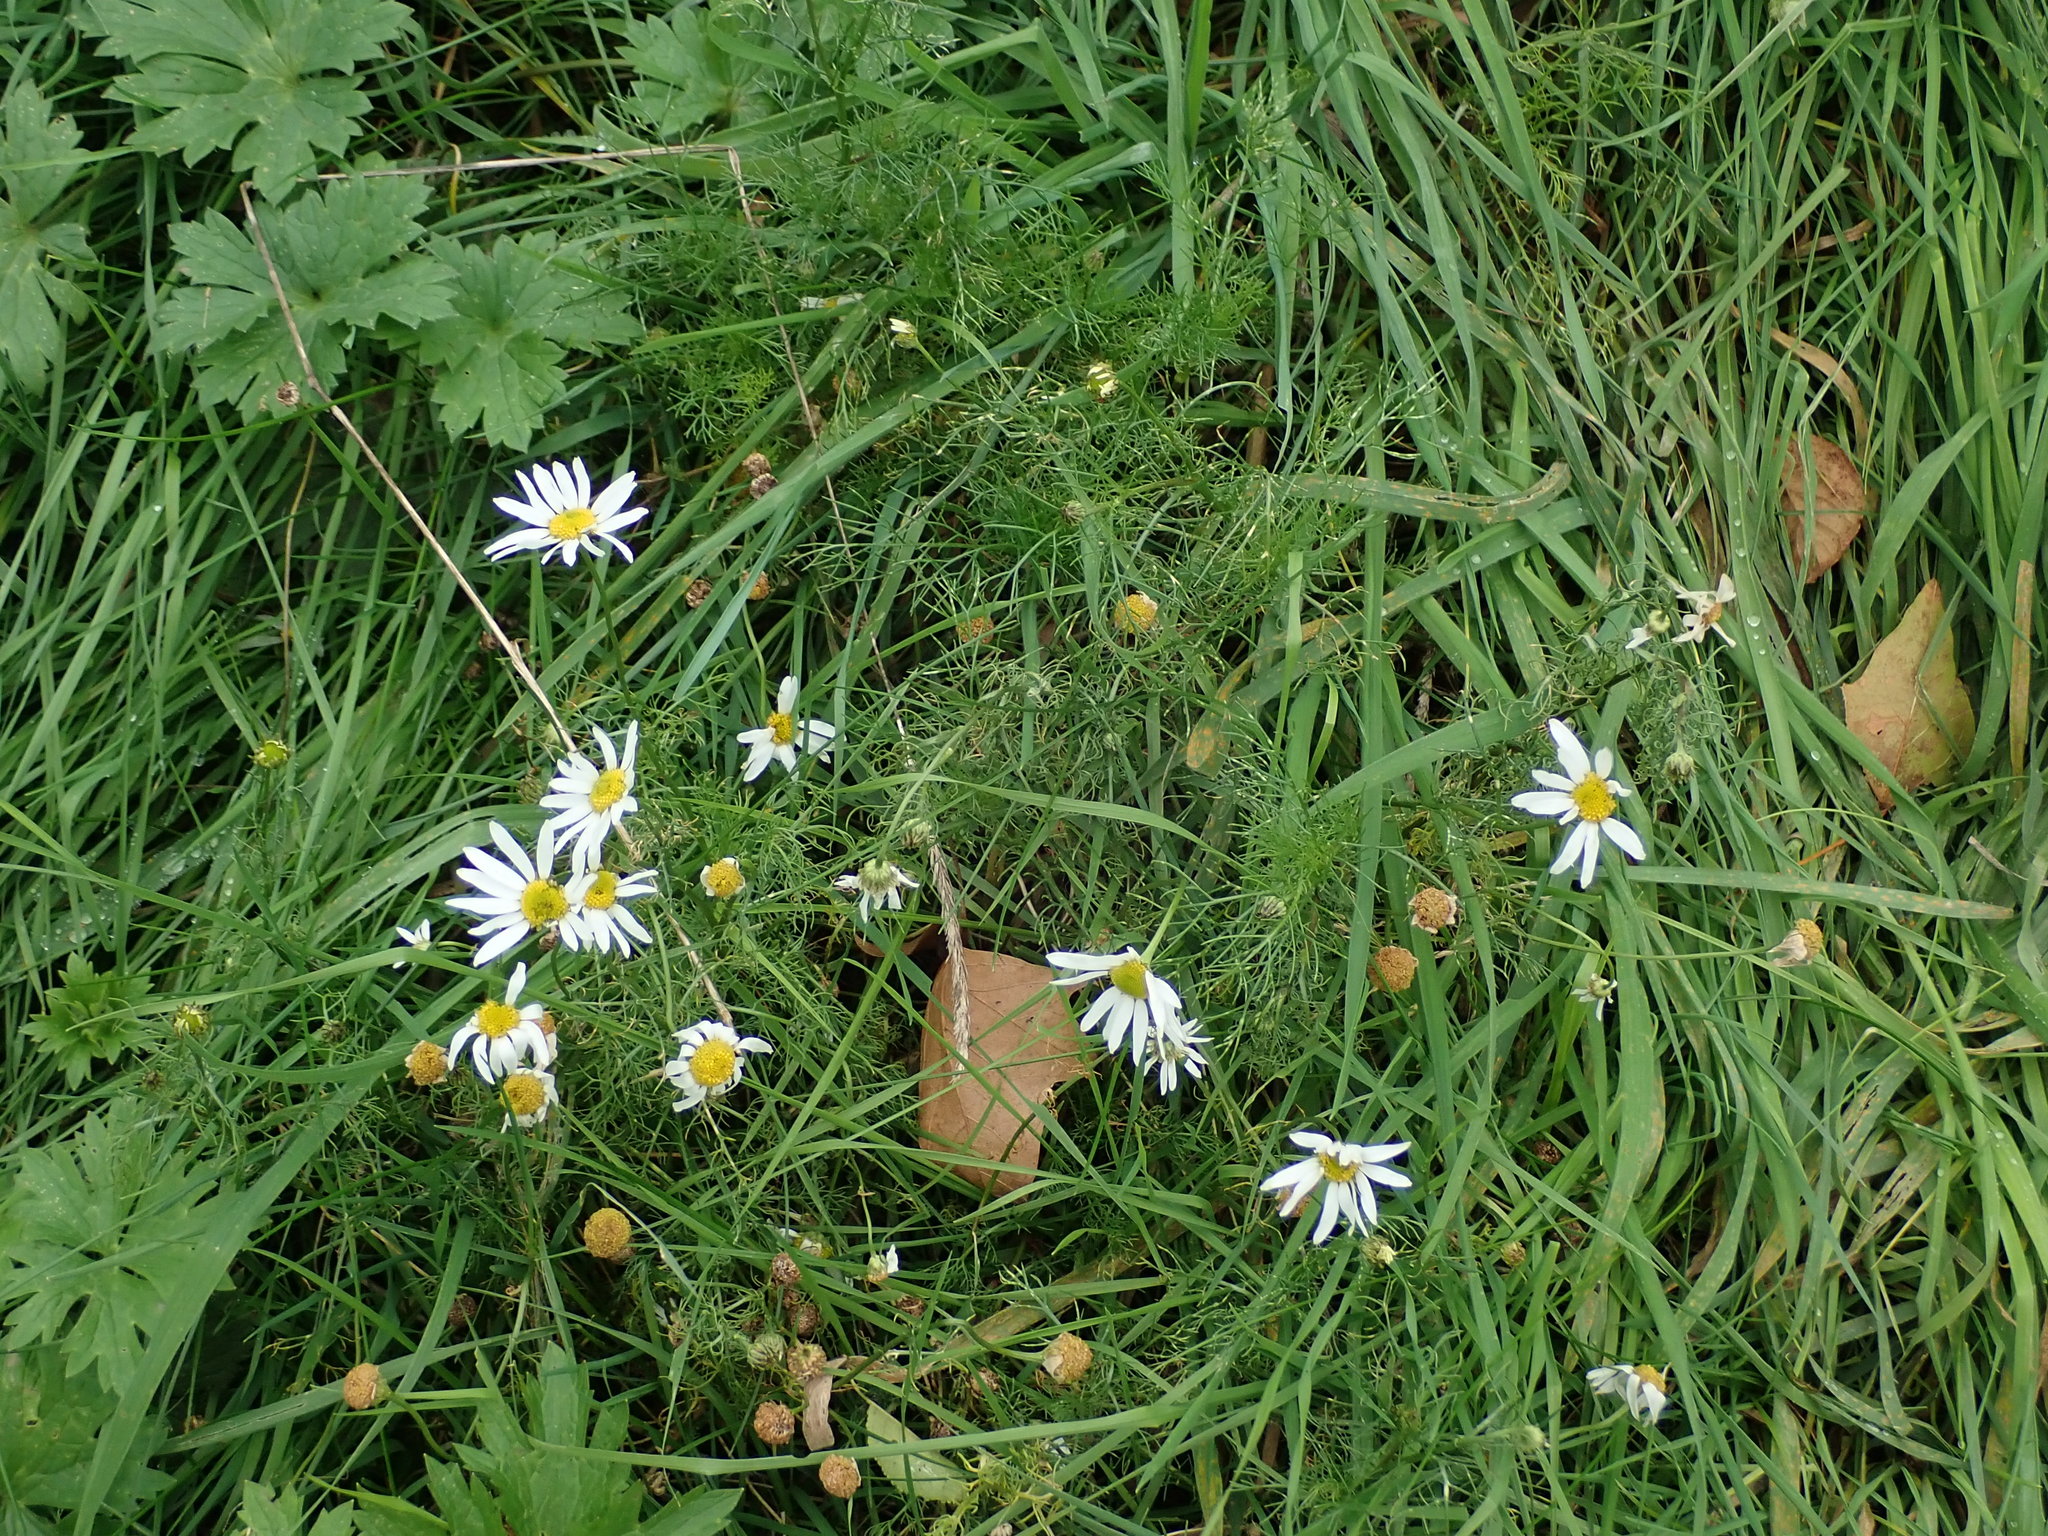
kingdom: Plantae
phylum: Tracheophyta
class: Magnoliopsida
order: Asterales
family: Asteraceae
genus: Tripleurospermum
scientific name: Tripleurospermum inodorum
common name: Scentless mayweed
